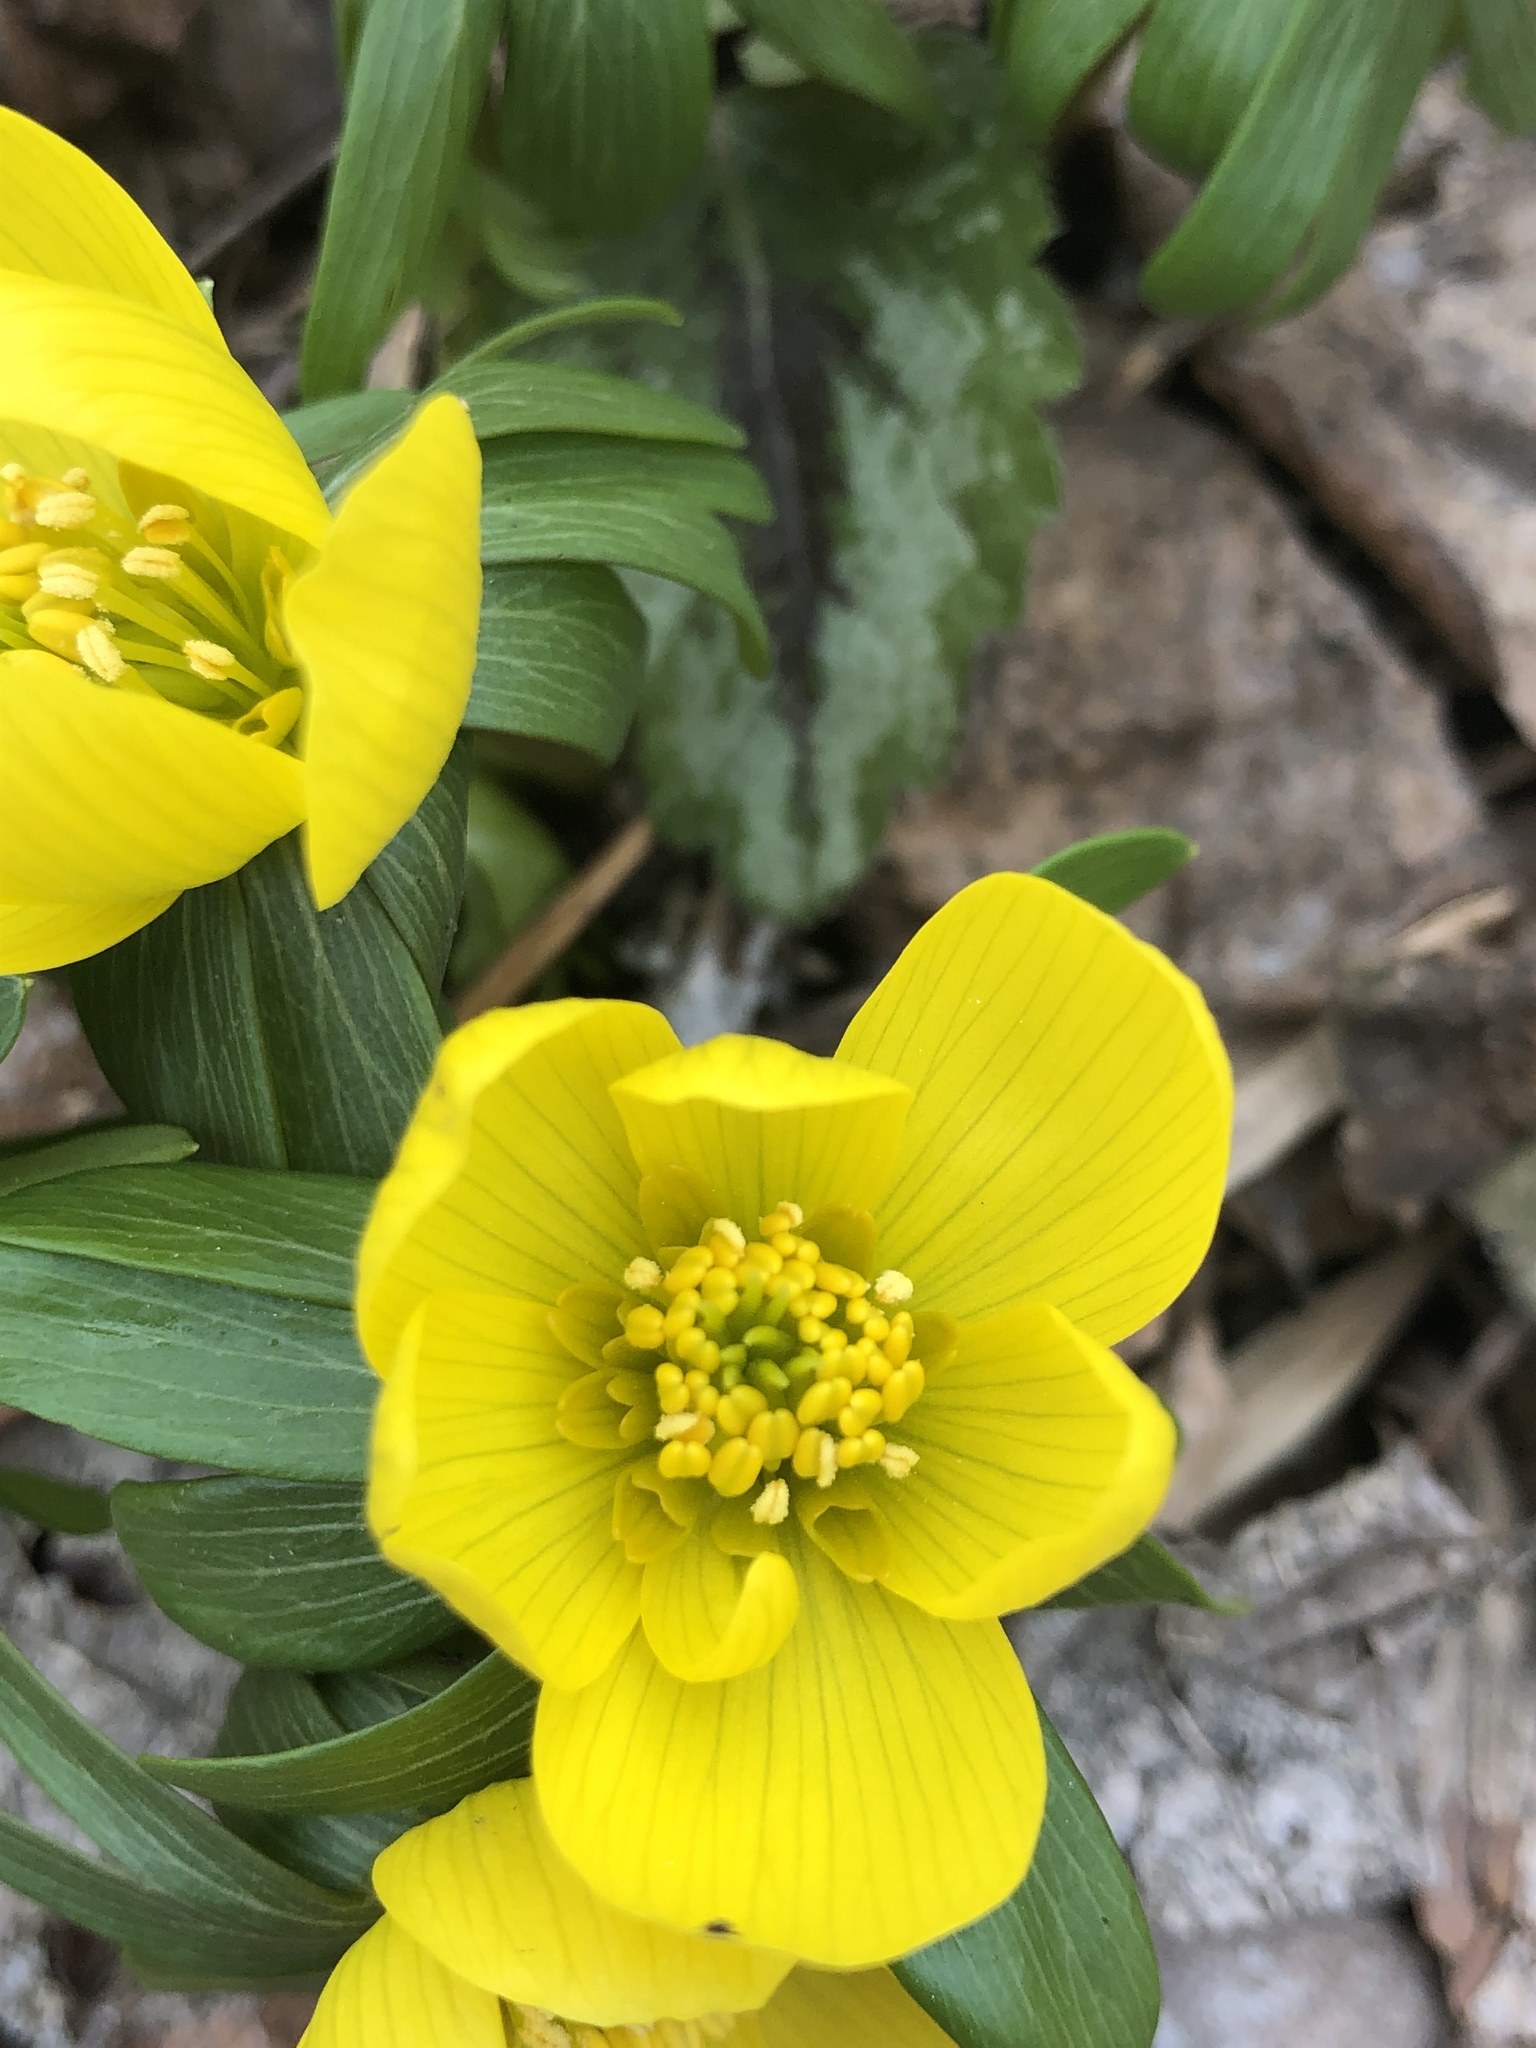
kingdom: Plantae
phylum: Tracheophyta
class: Magnoliopsida
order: Ranunculales
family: Ranunculaceae
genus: Eranthis
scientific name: Eranthis hyemalis
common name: Winter aconite
